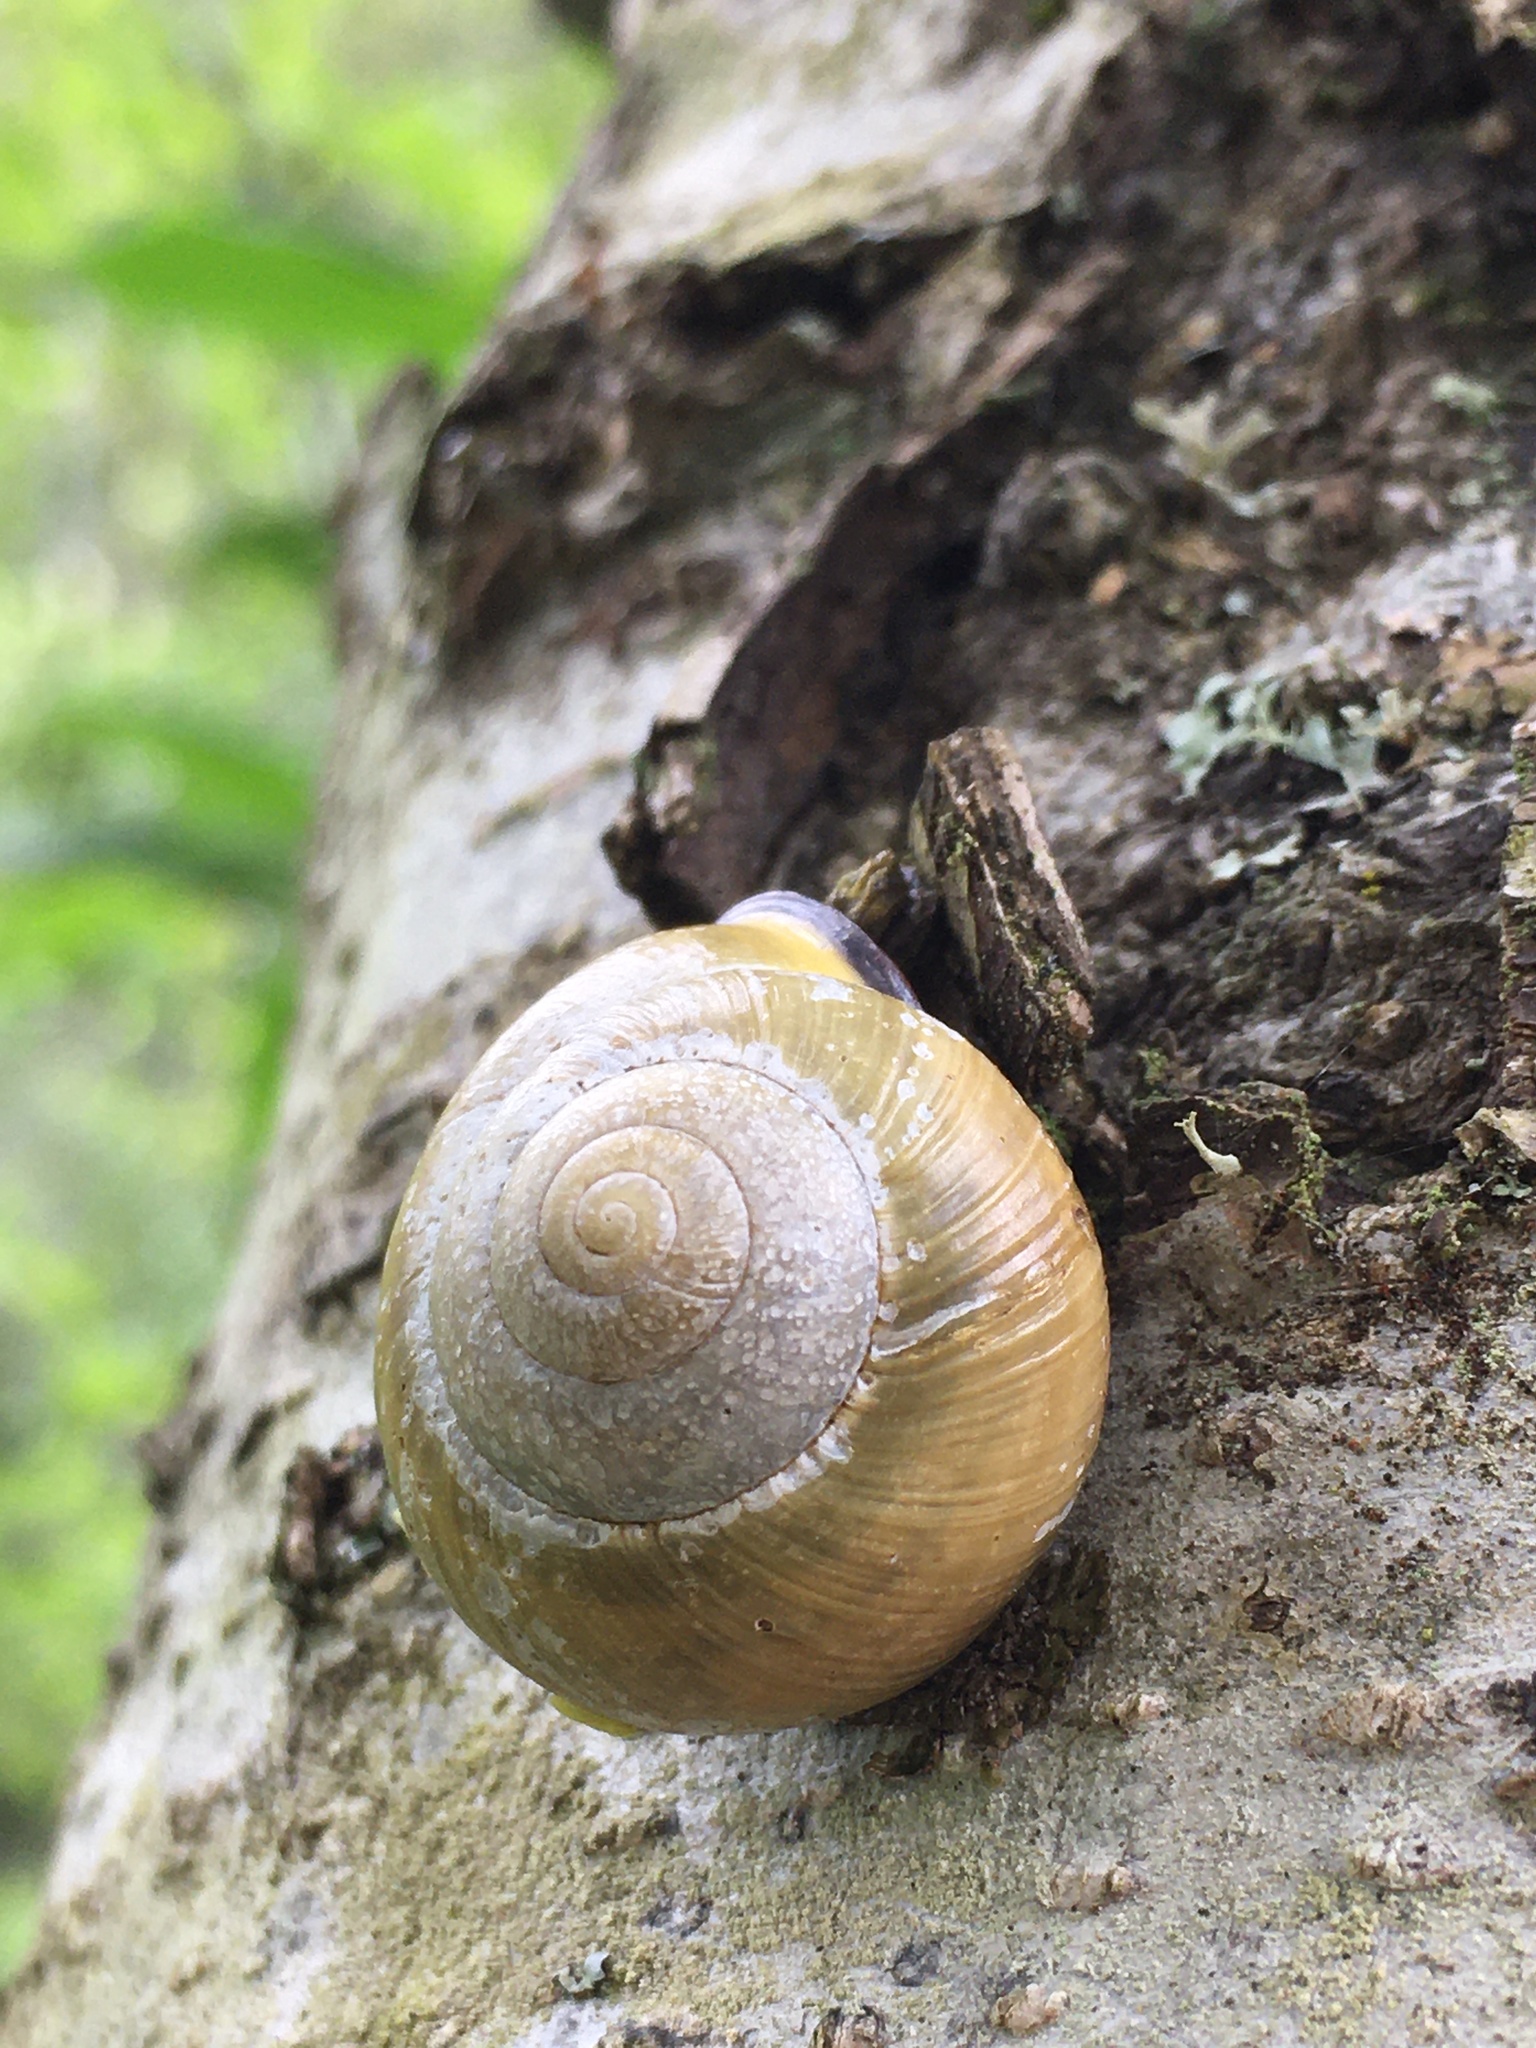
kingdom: Animalia
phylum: Mollusca
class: Gastropoda
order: Stylommatophora
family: Helicidae
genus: Cepaea
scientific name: Cepaea nemoralis
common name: Grovesnail
